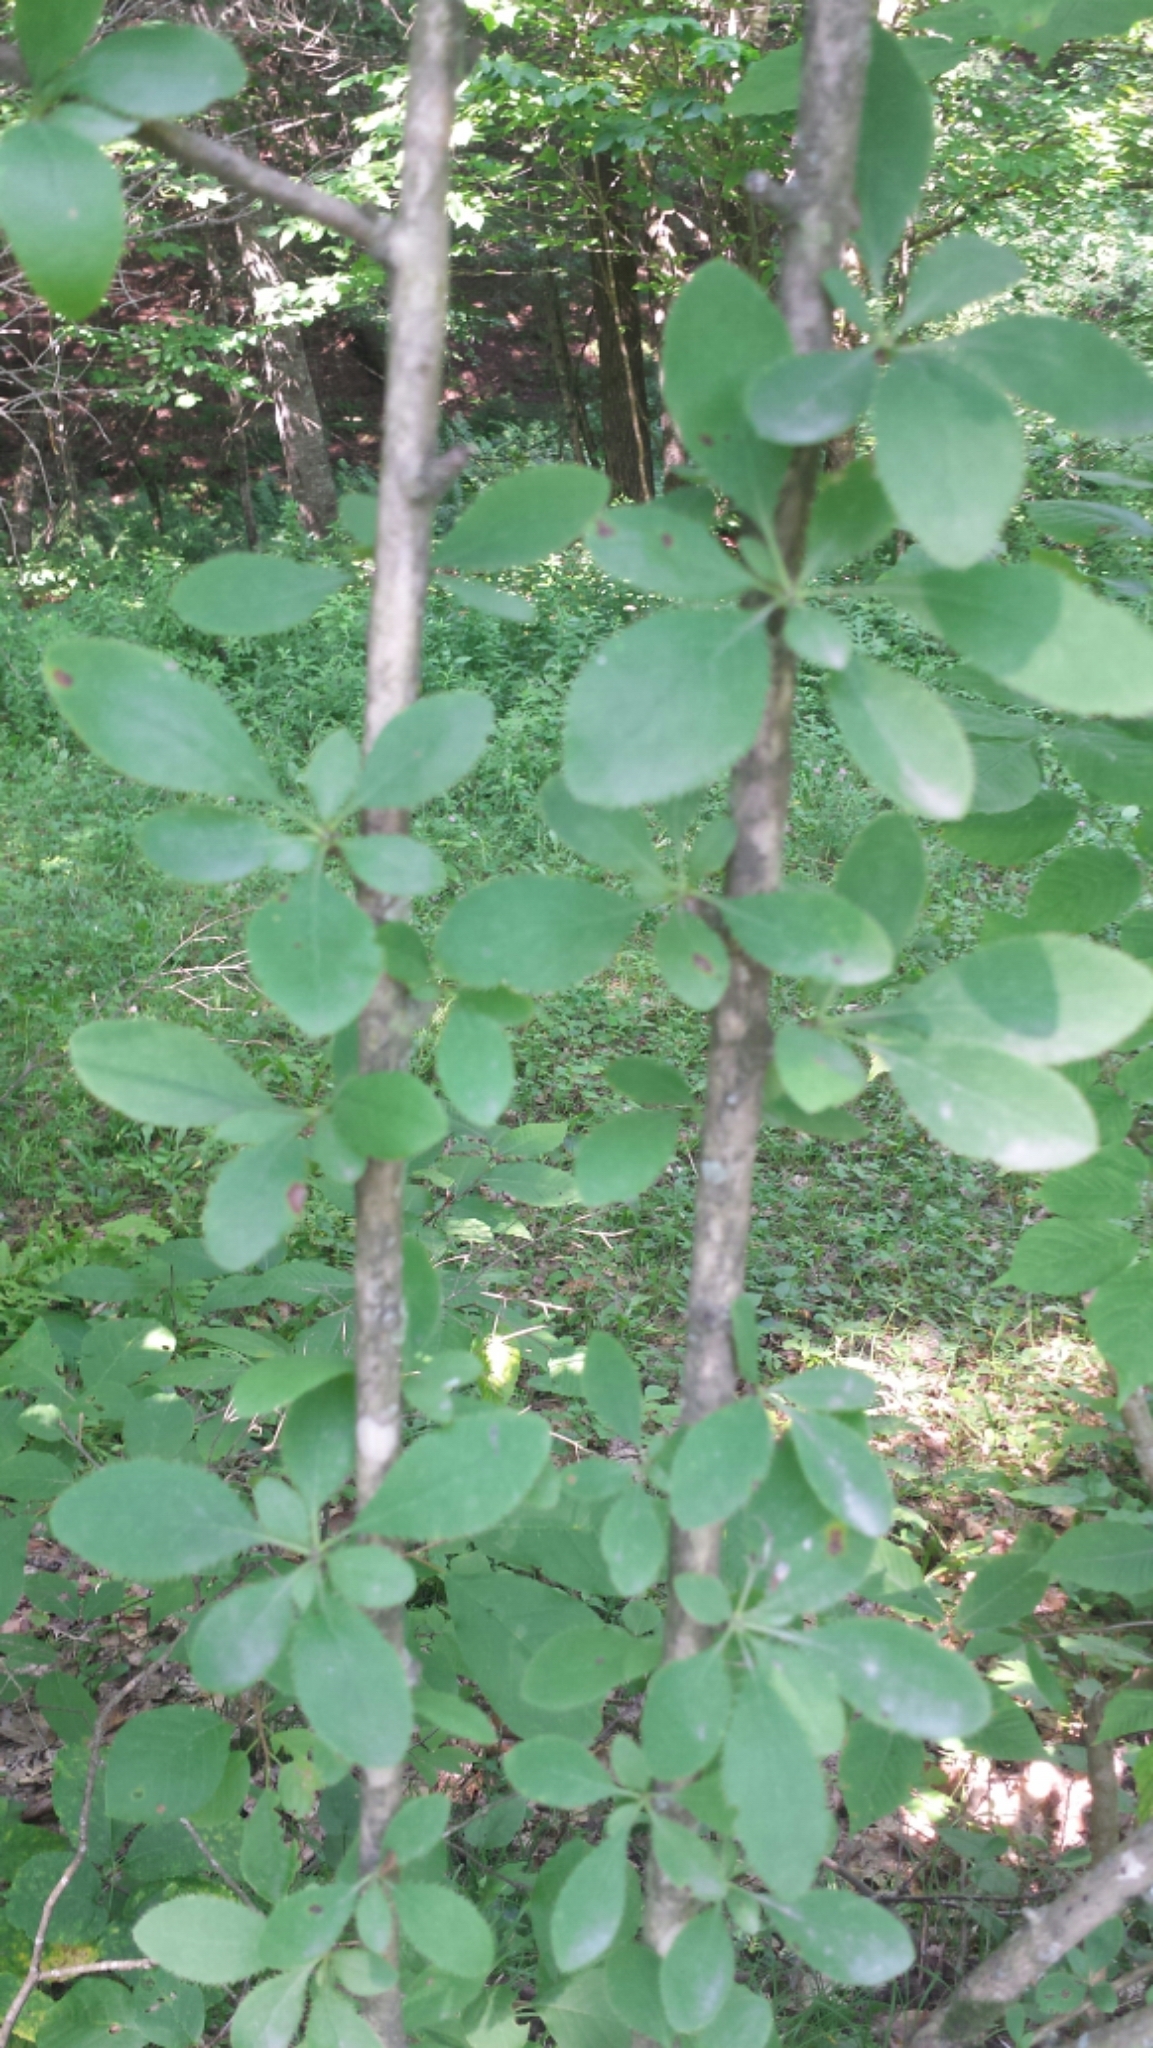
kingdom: Plantae
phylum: Tracheophyta
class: Magnoliopsida
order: Ranunculales
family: Berberidaceae
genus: Berberis
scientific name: Berberis vulgaris
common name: Barberry
